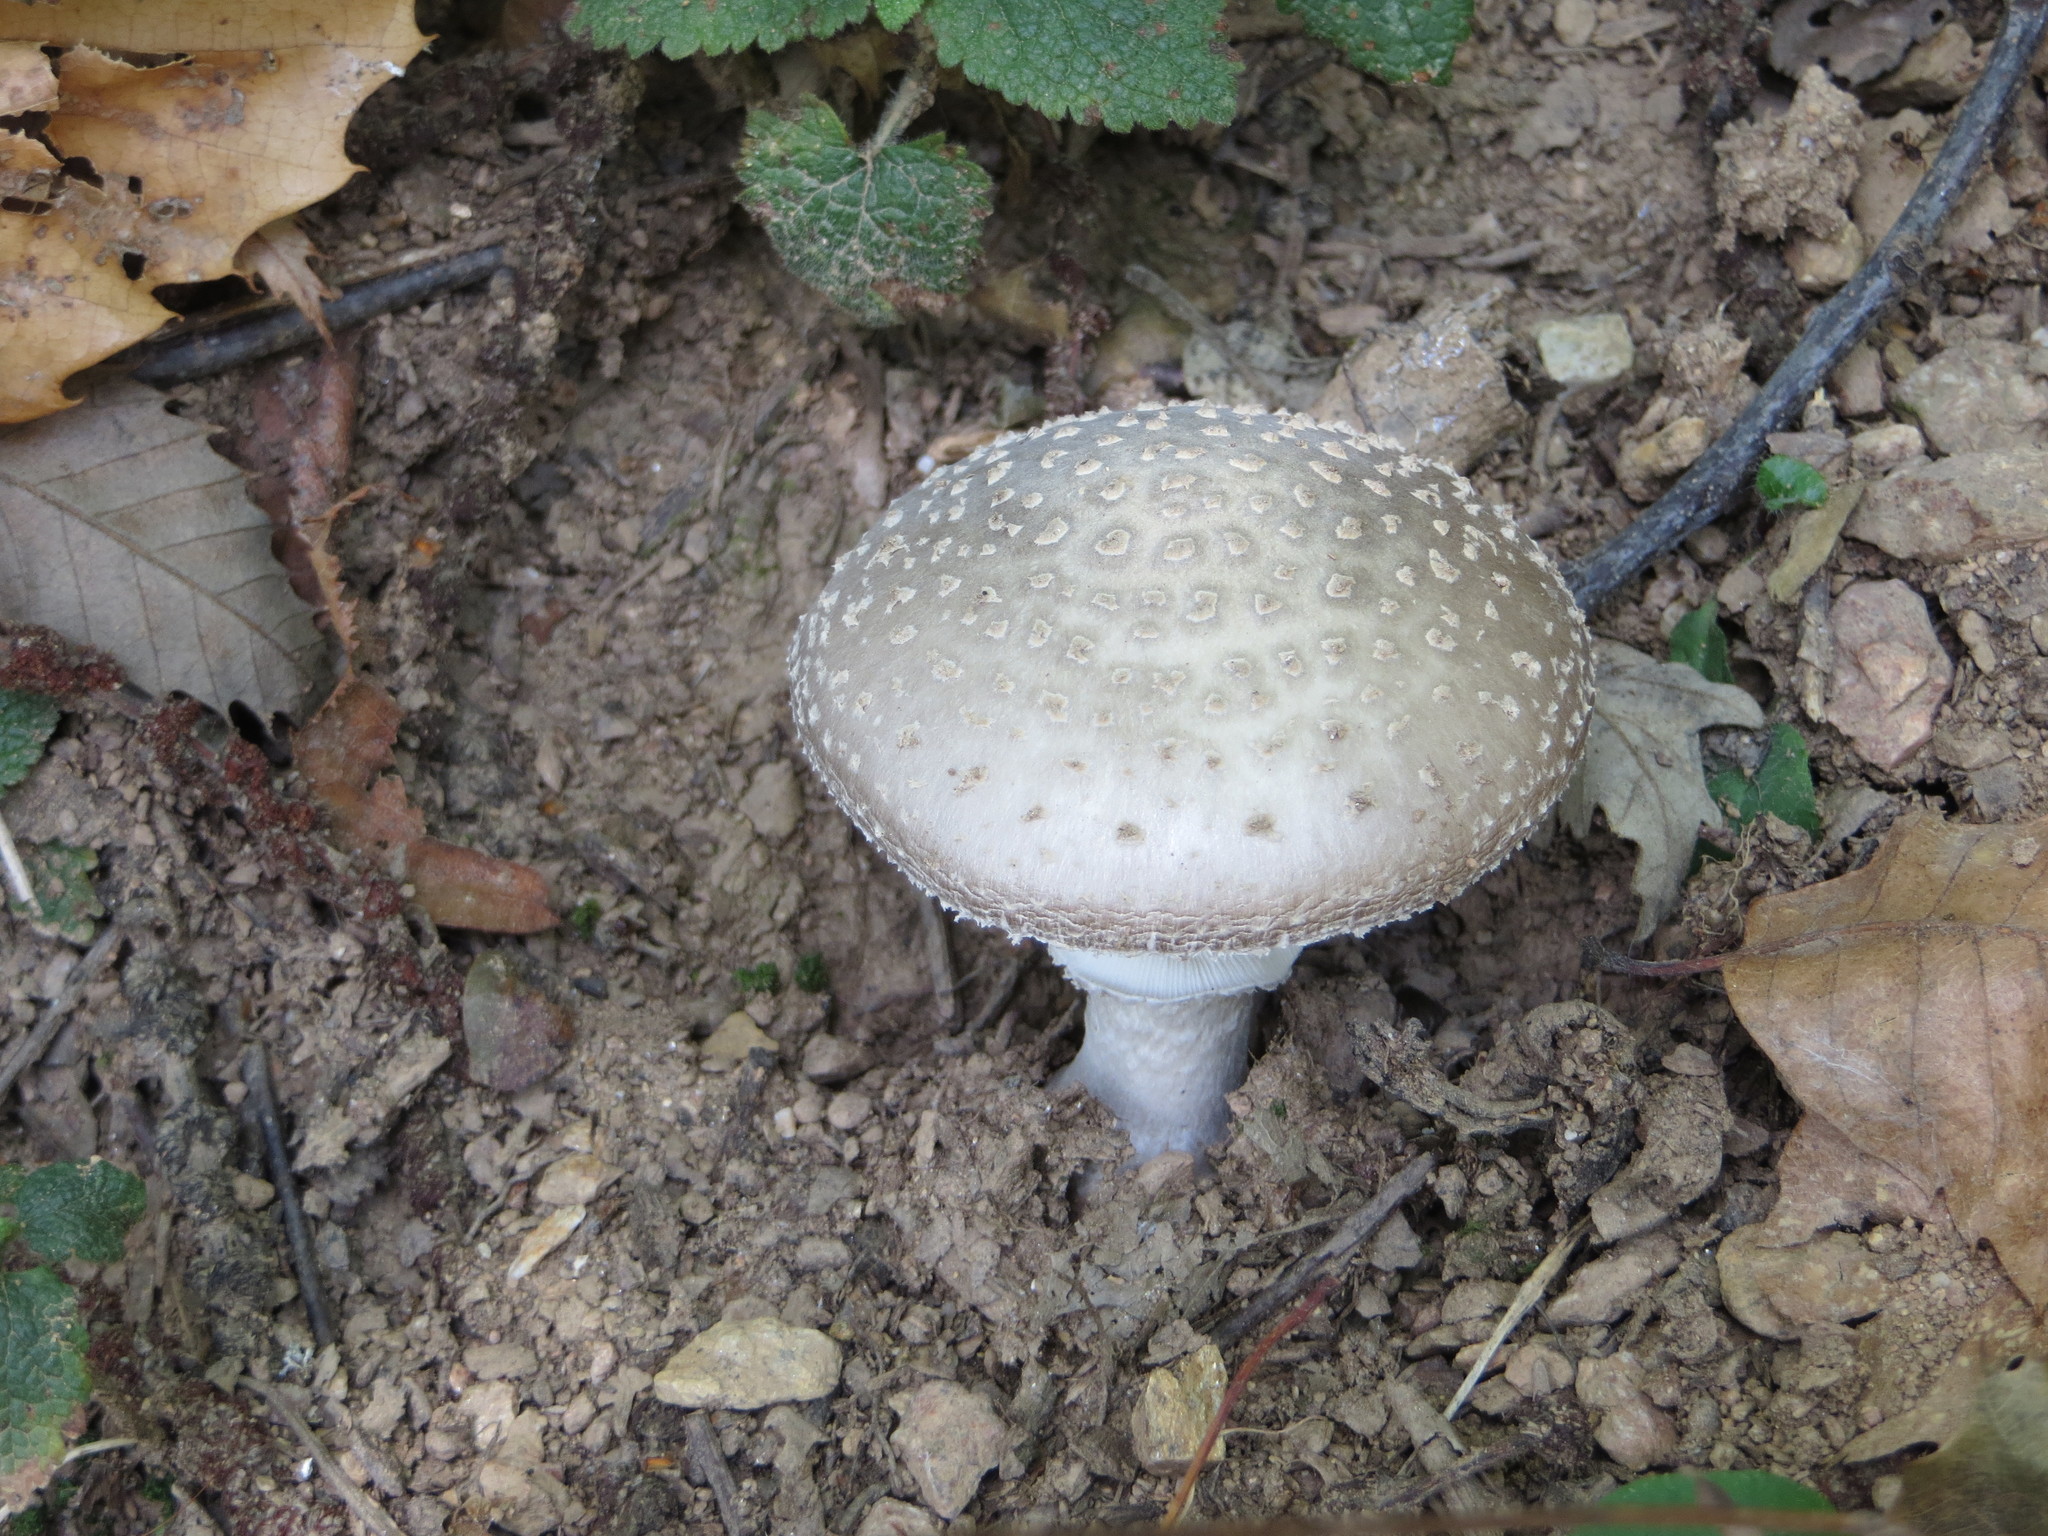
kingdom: Fungi
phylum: Basidiomycota
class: Agaricomycetes
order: Agaricales
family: Amanitaceae
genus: Amanita
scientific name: Amanita excelsa
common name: European false blusher
